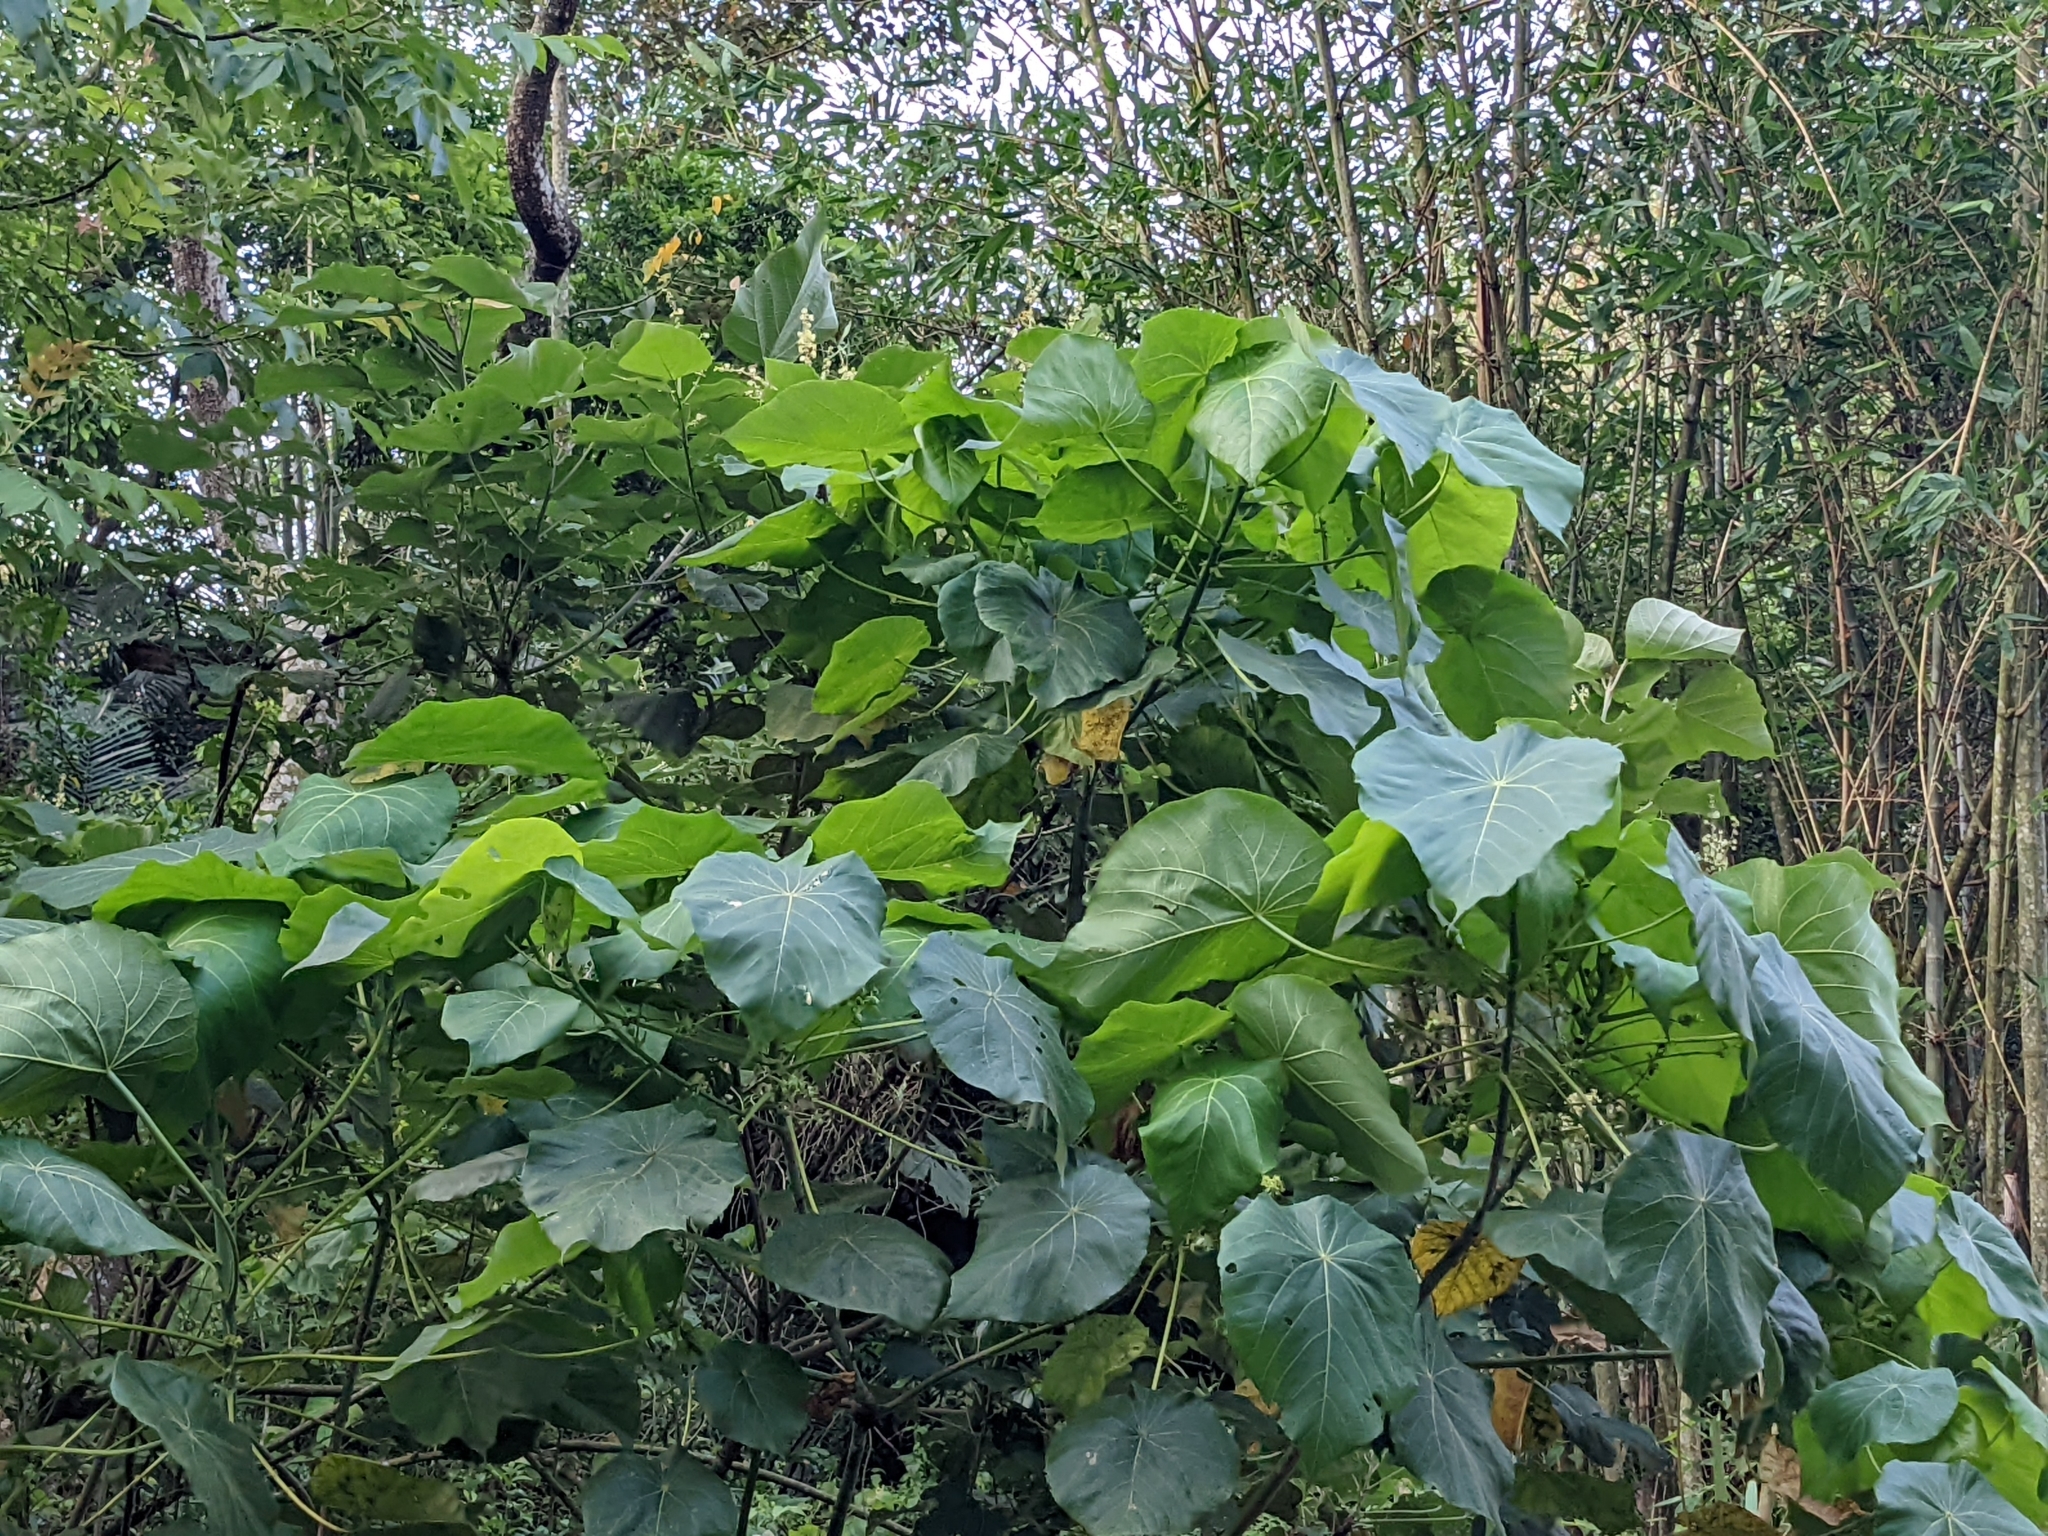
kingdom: Plantae
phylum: Tracheophyta
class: Magnoliopsida
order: Malpighiales
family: Euphorbiaceae
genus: Macaranga
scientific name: Macaranga tanarius
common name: Parasol leaf tree
